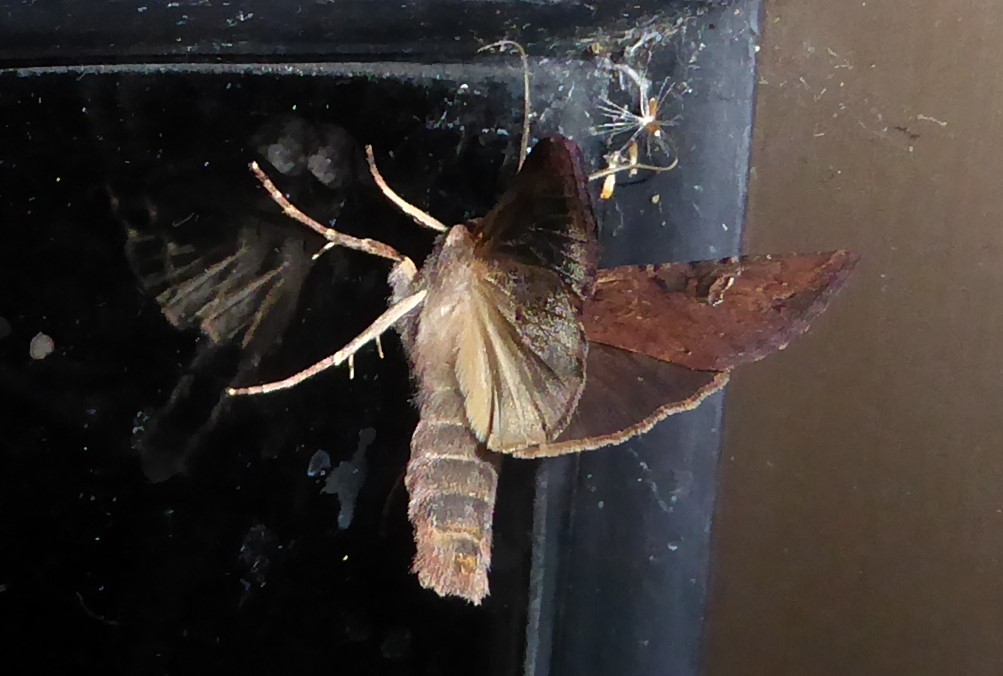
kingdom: Animalia
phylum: Arthropoda
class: Insecta
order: Lepidoptera
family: Noctuidae
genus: Ichneutica
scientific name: Ichneutica omoplaca
